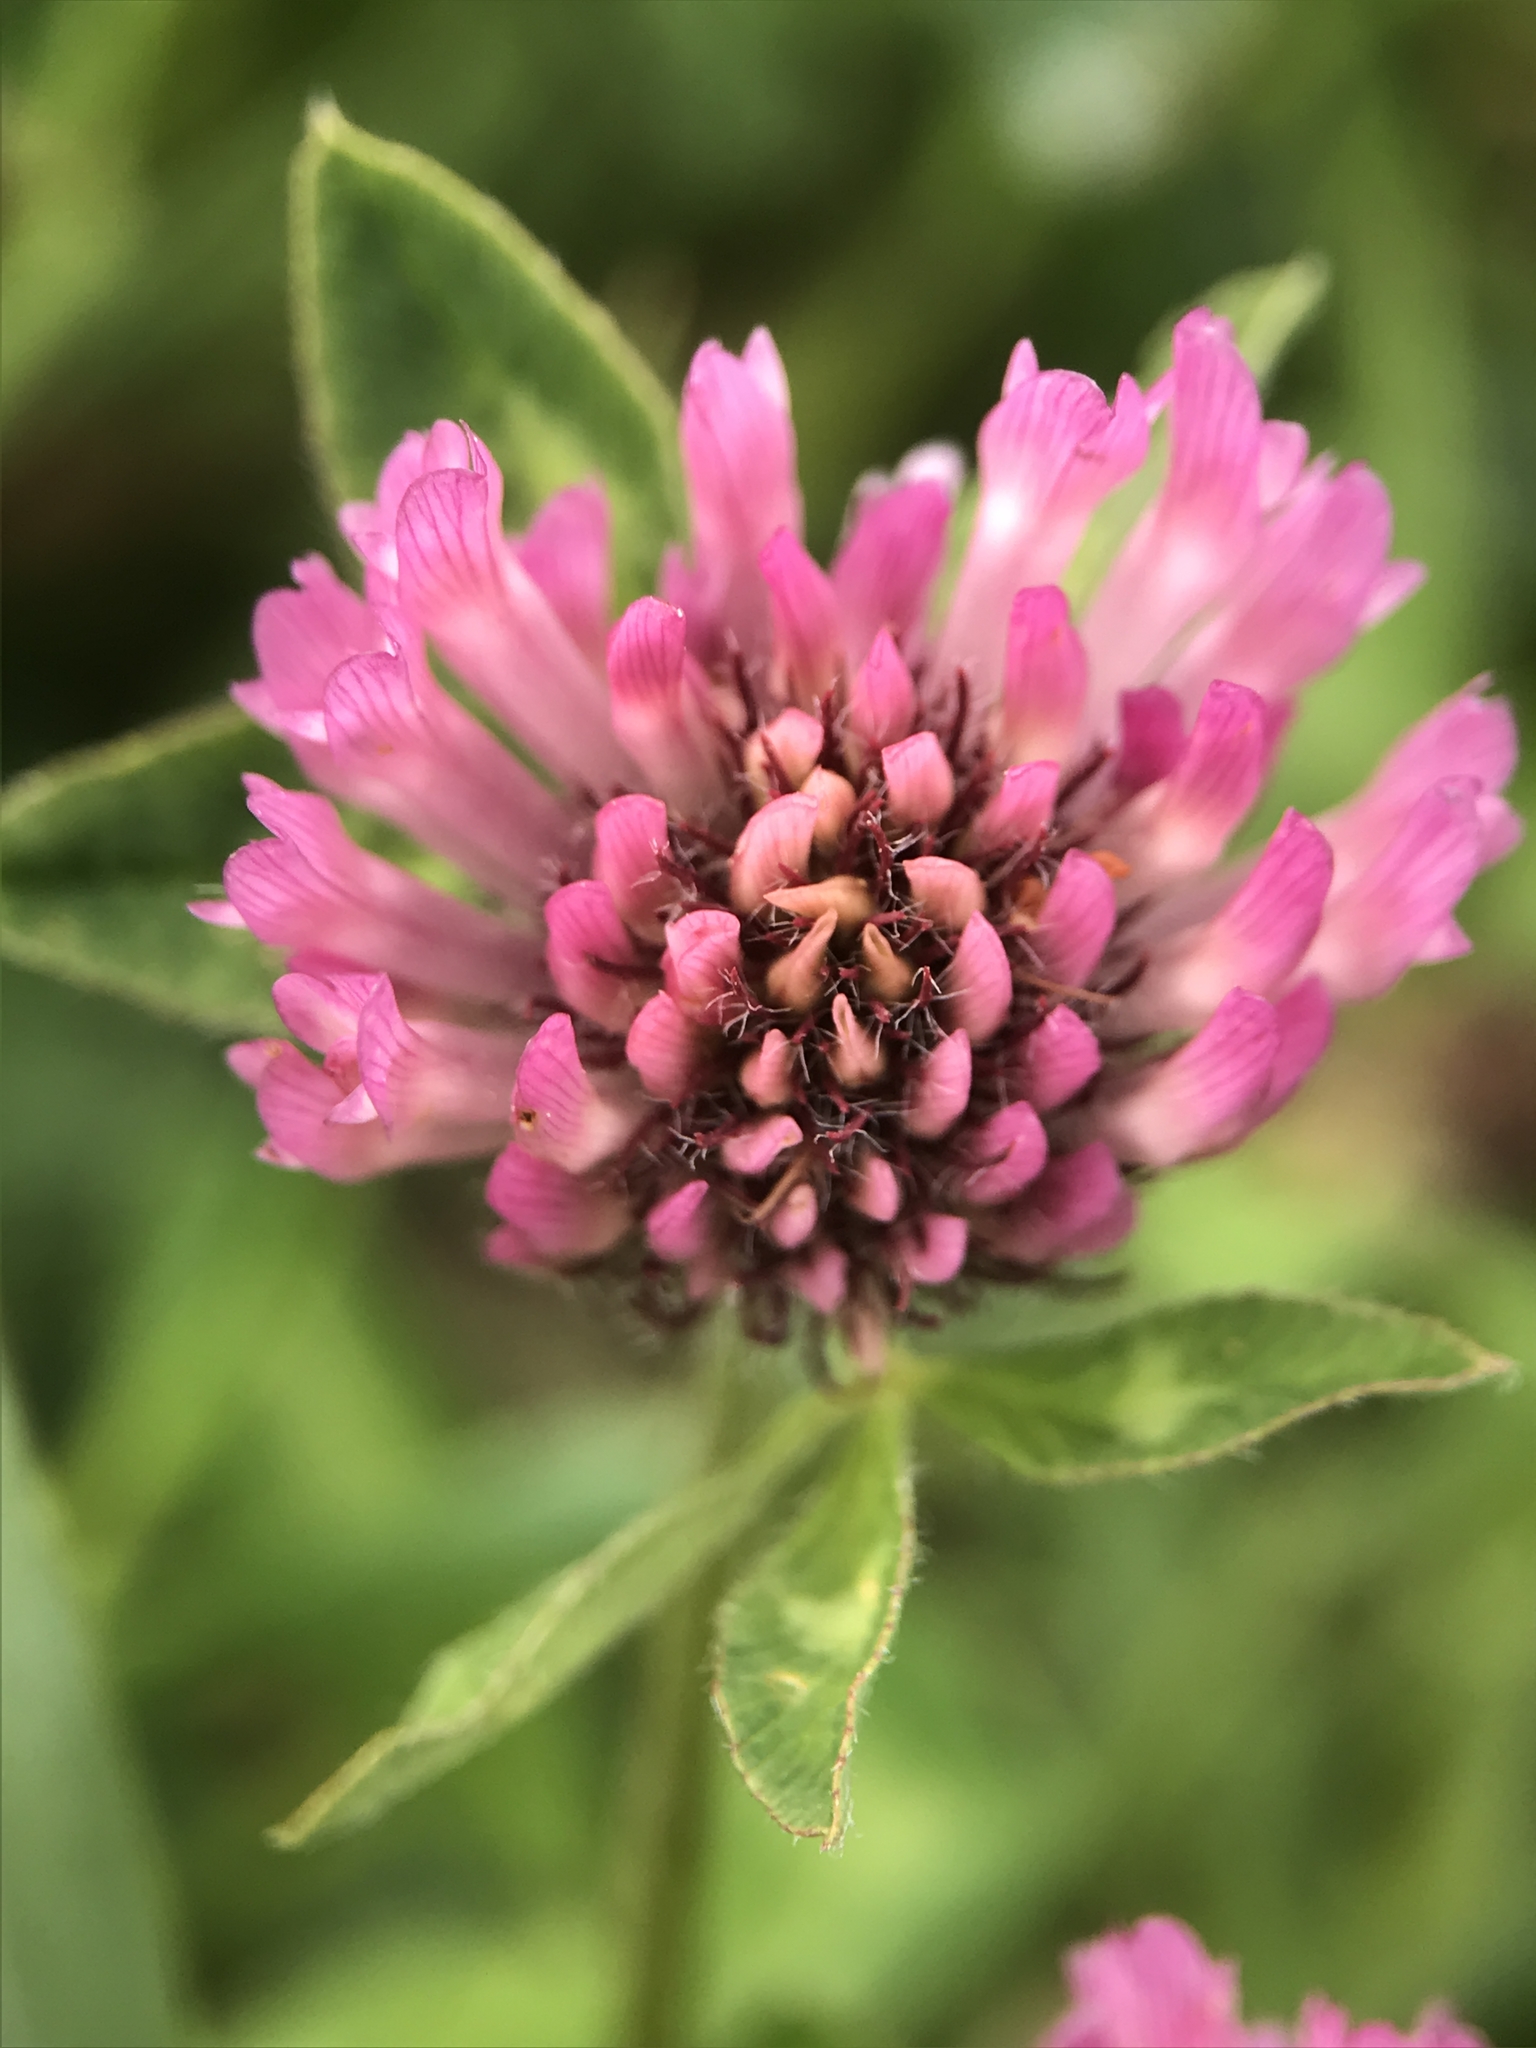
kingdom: Plantae
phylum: Tracheophyta
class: Magnoliopsida
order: Fabales
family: Fabaceae
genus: Trifolium
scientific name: Trifolium pratense
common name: Red clover
